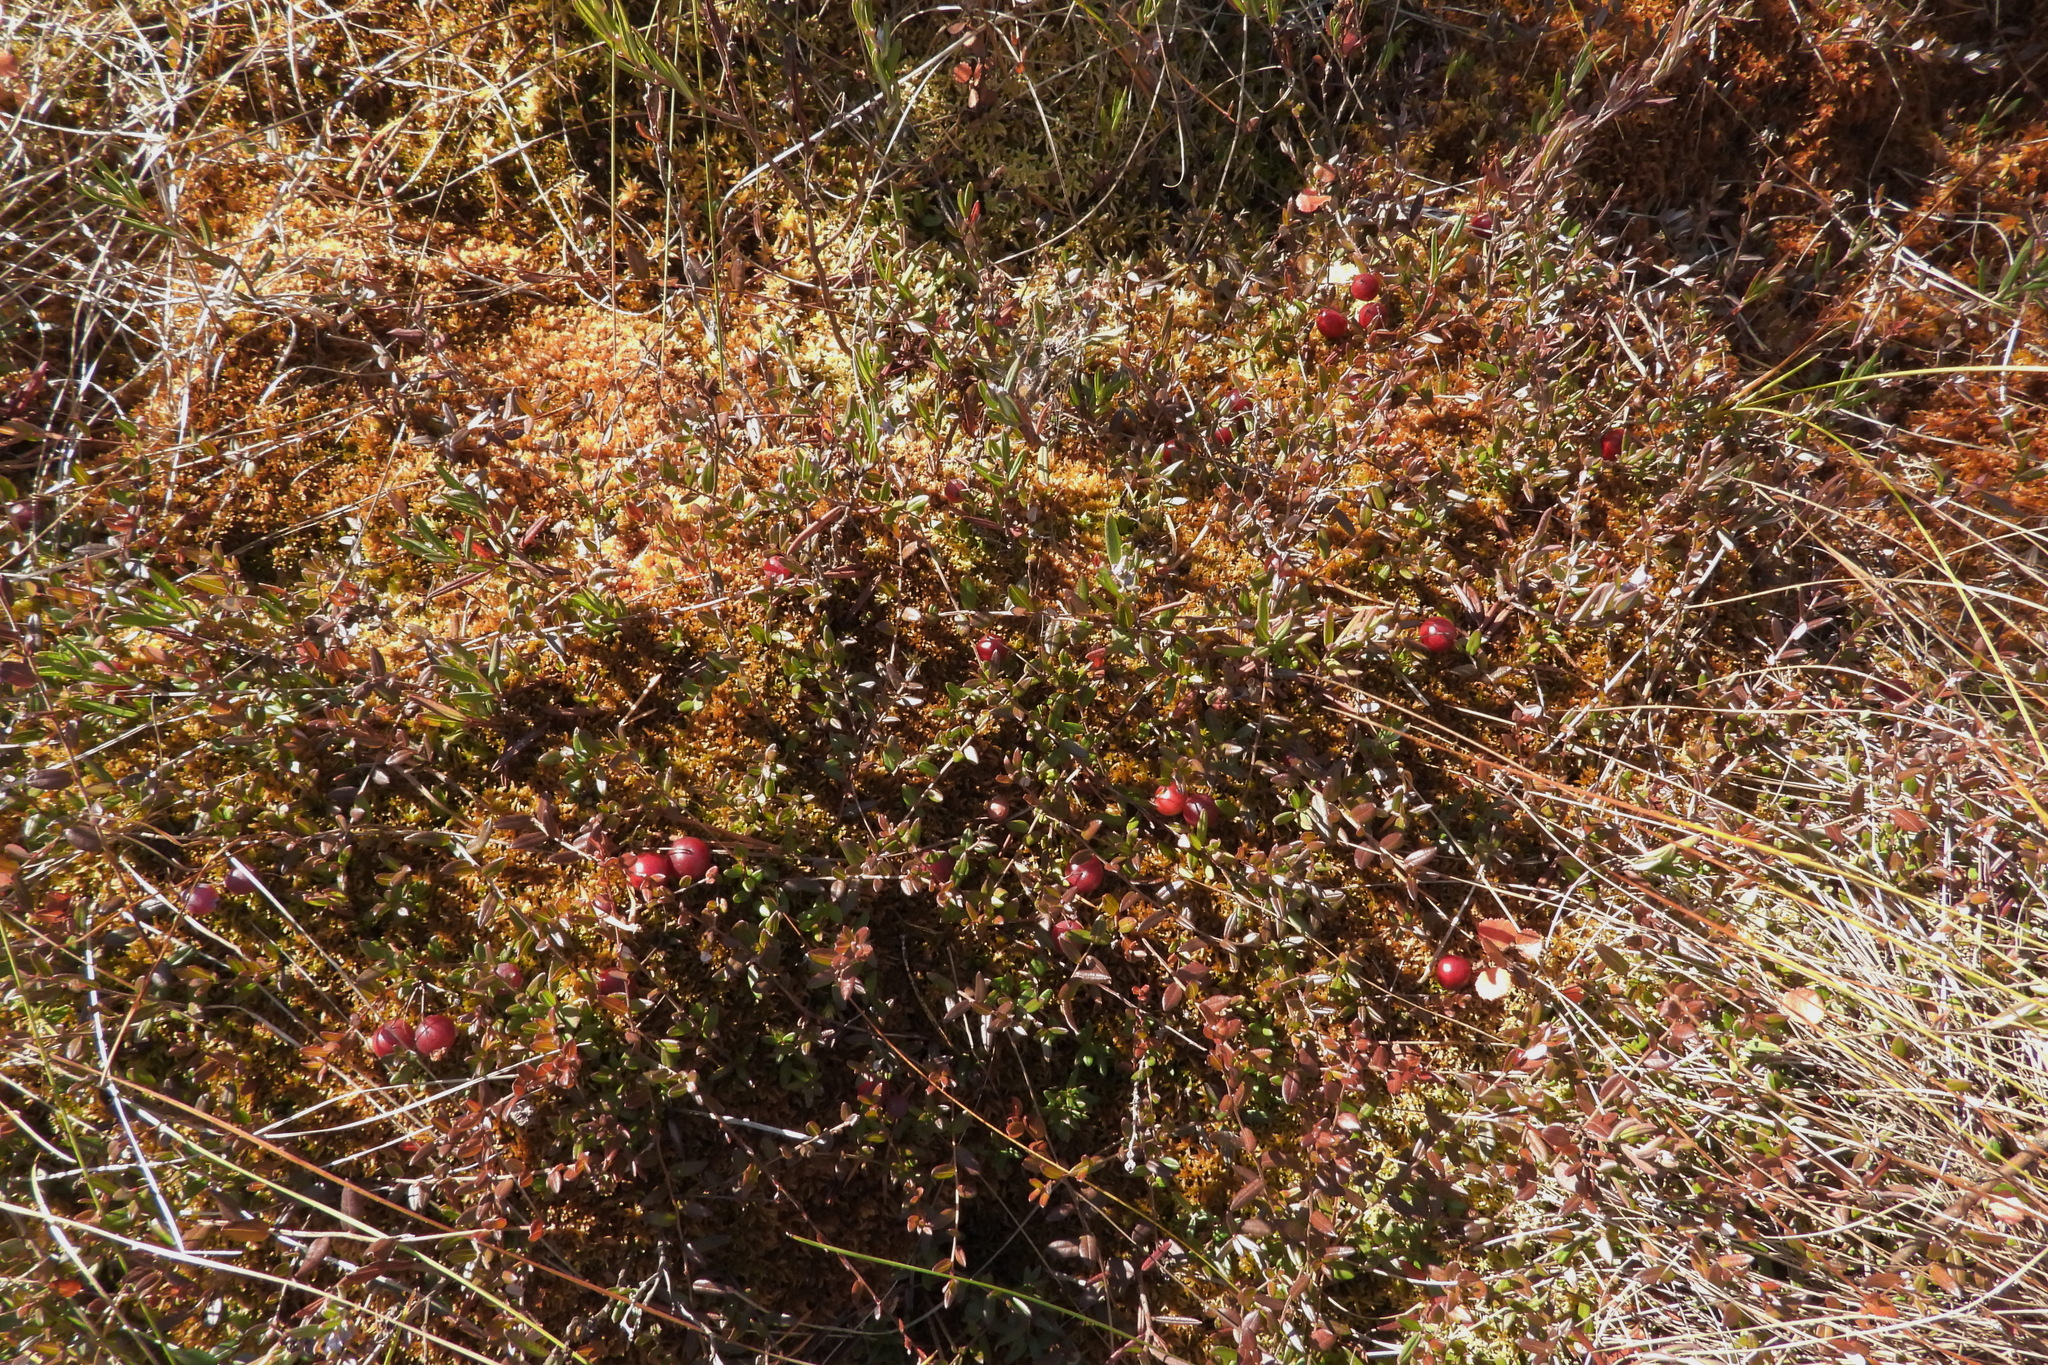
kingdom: Plantae
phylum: Tracheophyta
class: Magnoliopsida
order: Ericales
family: Ericaceae
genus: Vaccinium
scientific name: Vaccinium oxycoccos
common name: Cranberry
